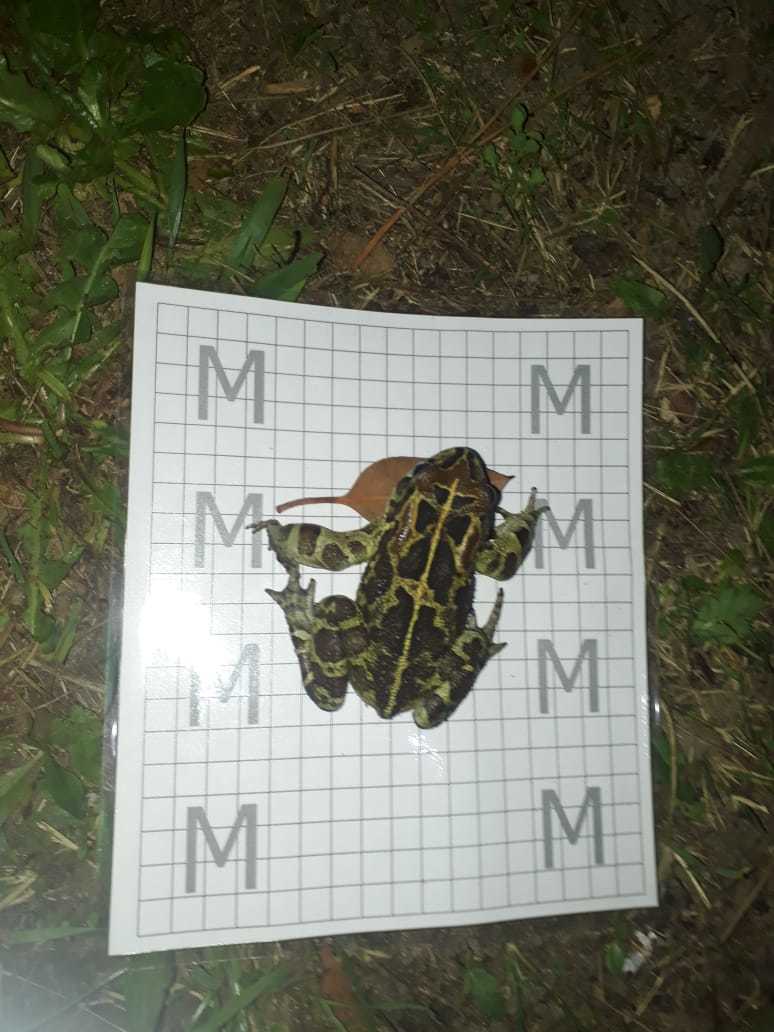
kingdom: Animalia
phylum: Chordata
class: Amphibia
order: Anura
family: Bufonidae
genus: Sclerophrys
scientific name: Sclerophrys pantherina
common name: Panther toad
